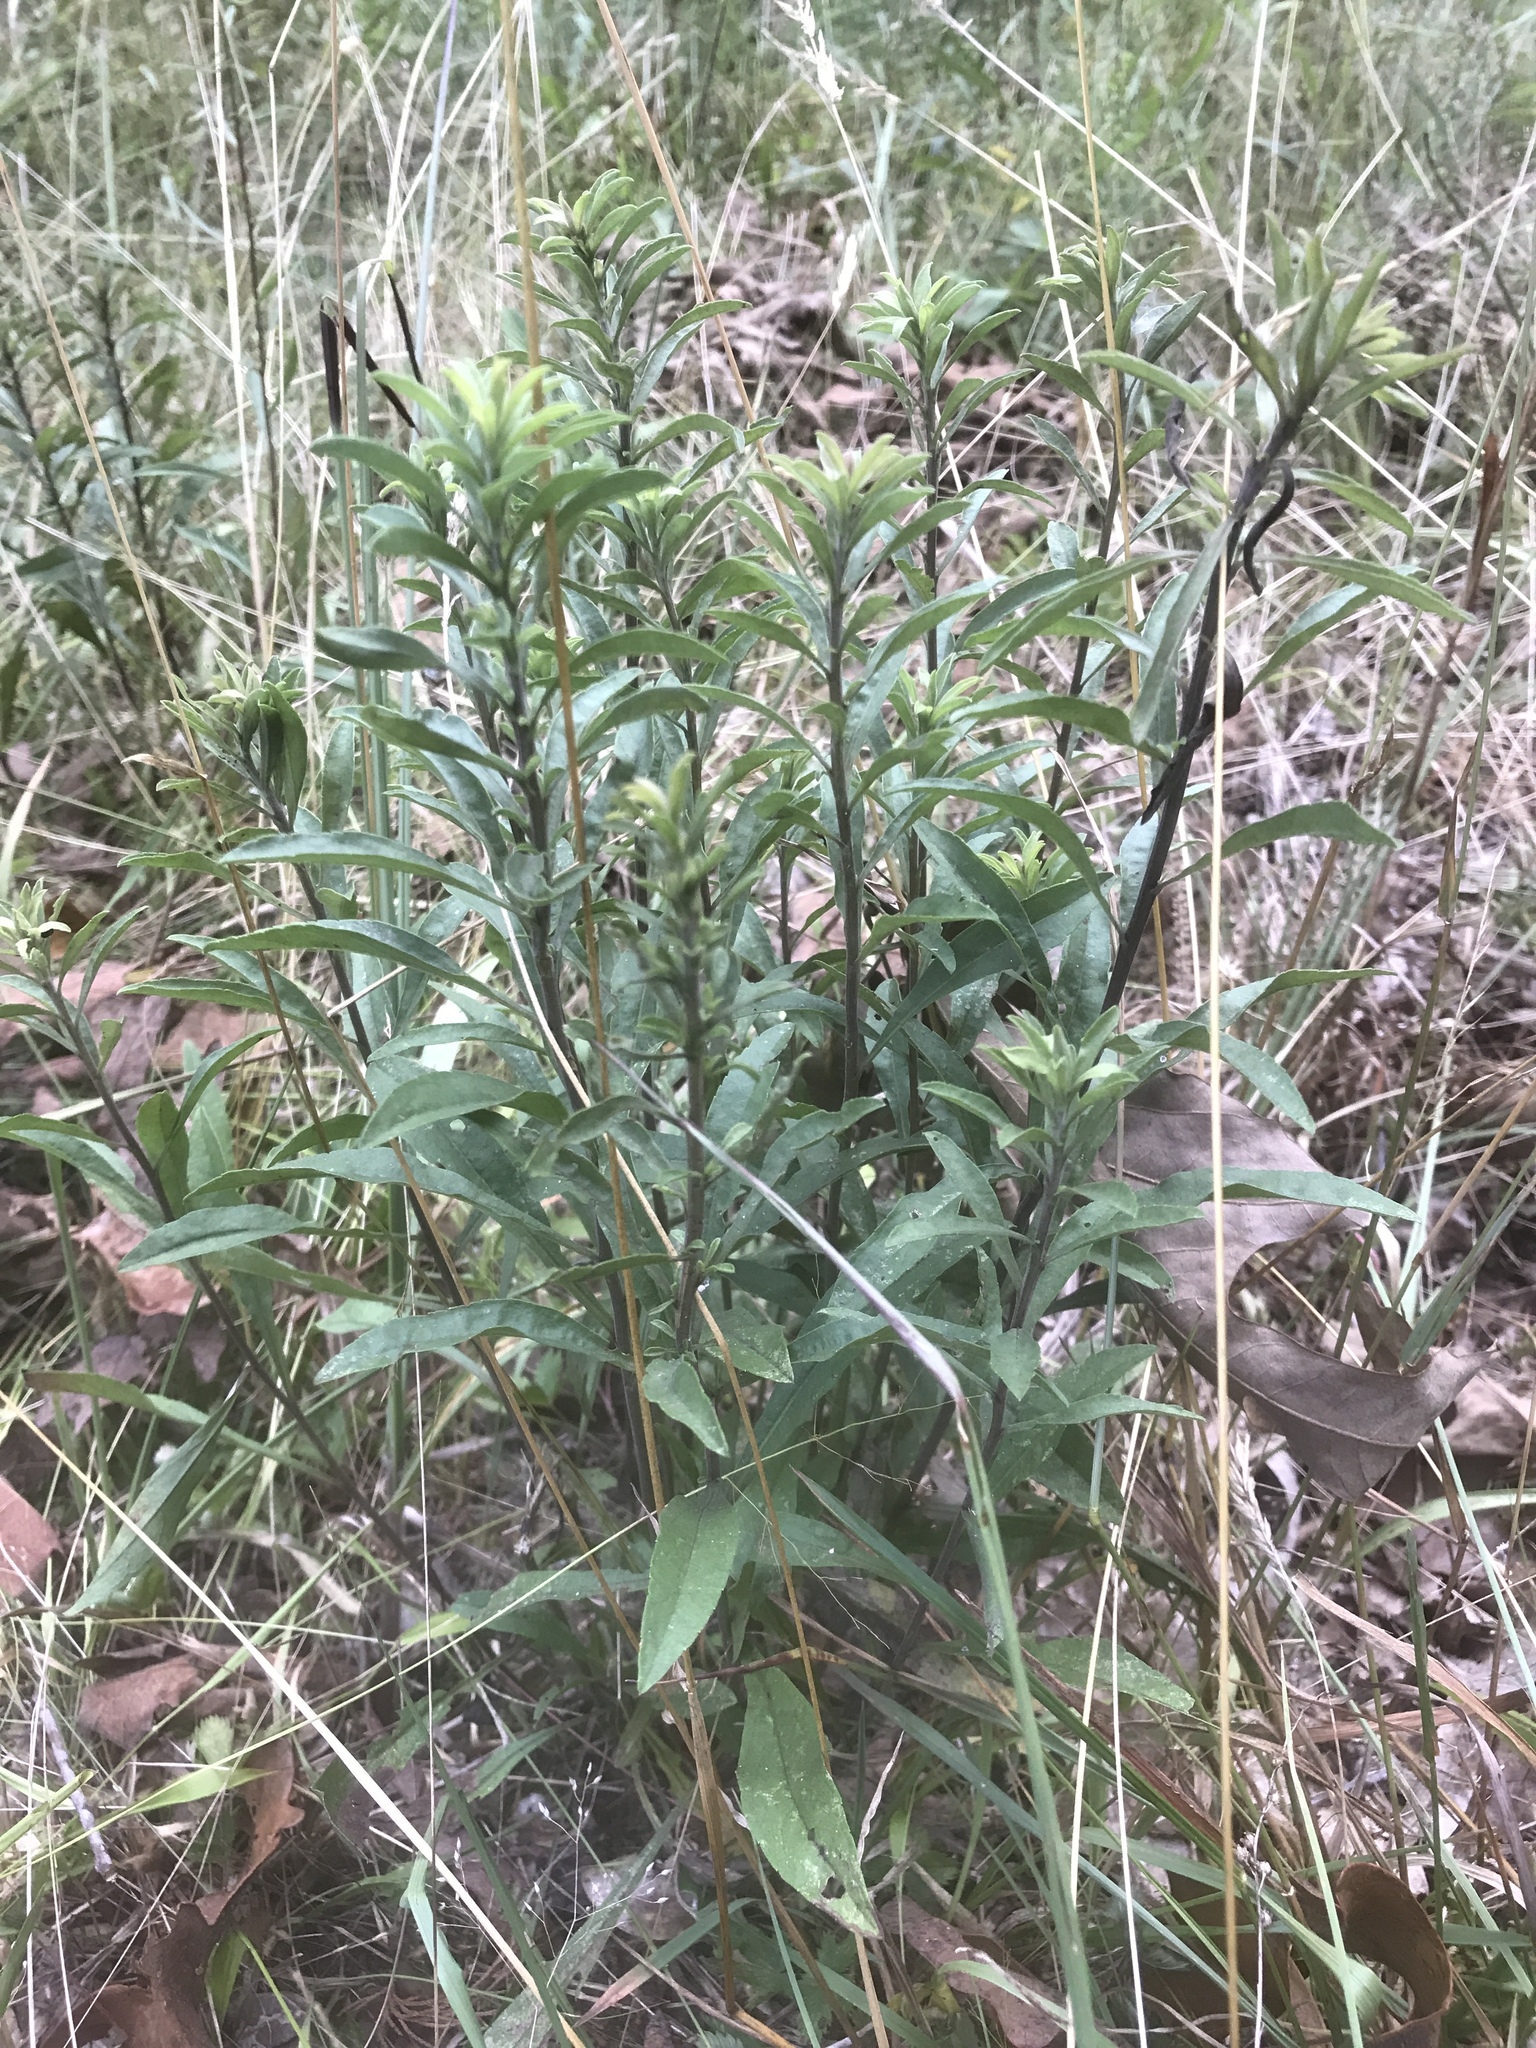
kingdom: Plantae
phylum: Tracheophyta
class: Magnoliopsida
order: Asterales
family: Asteraceae
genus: Solidago
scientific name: Solidago nemoralis
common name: Grey goldenrod
